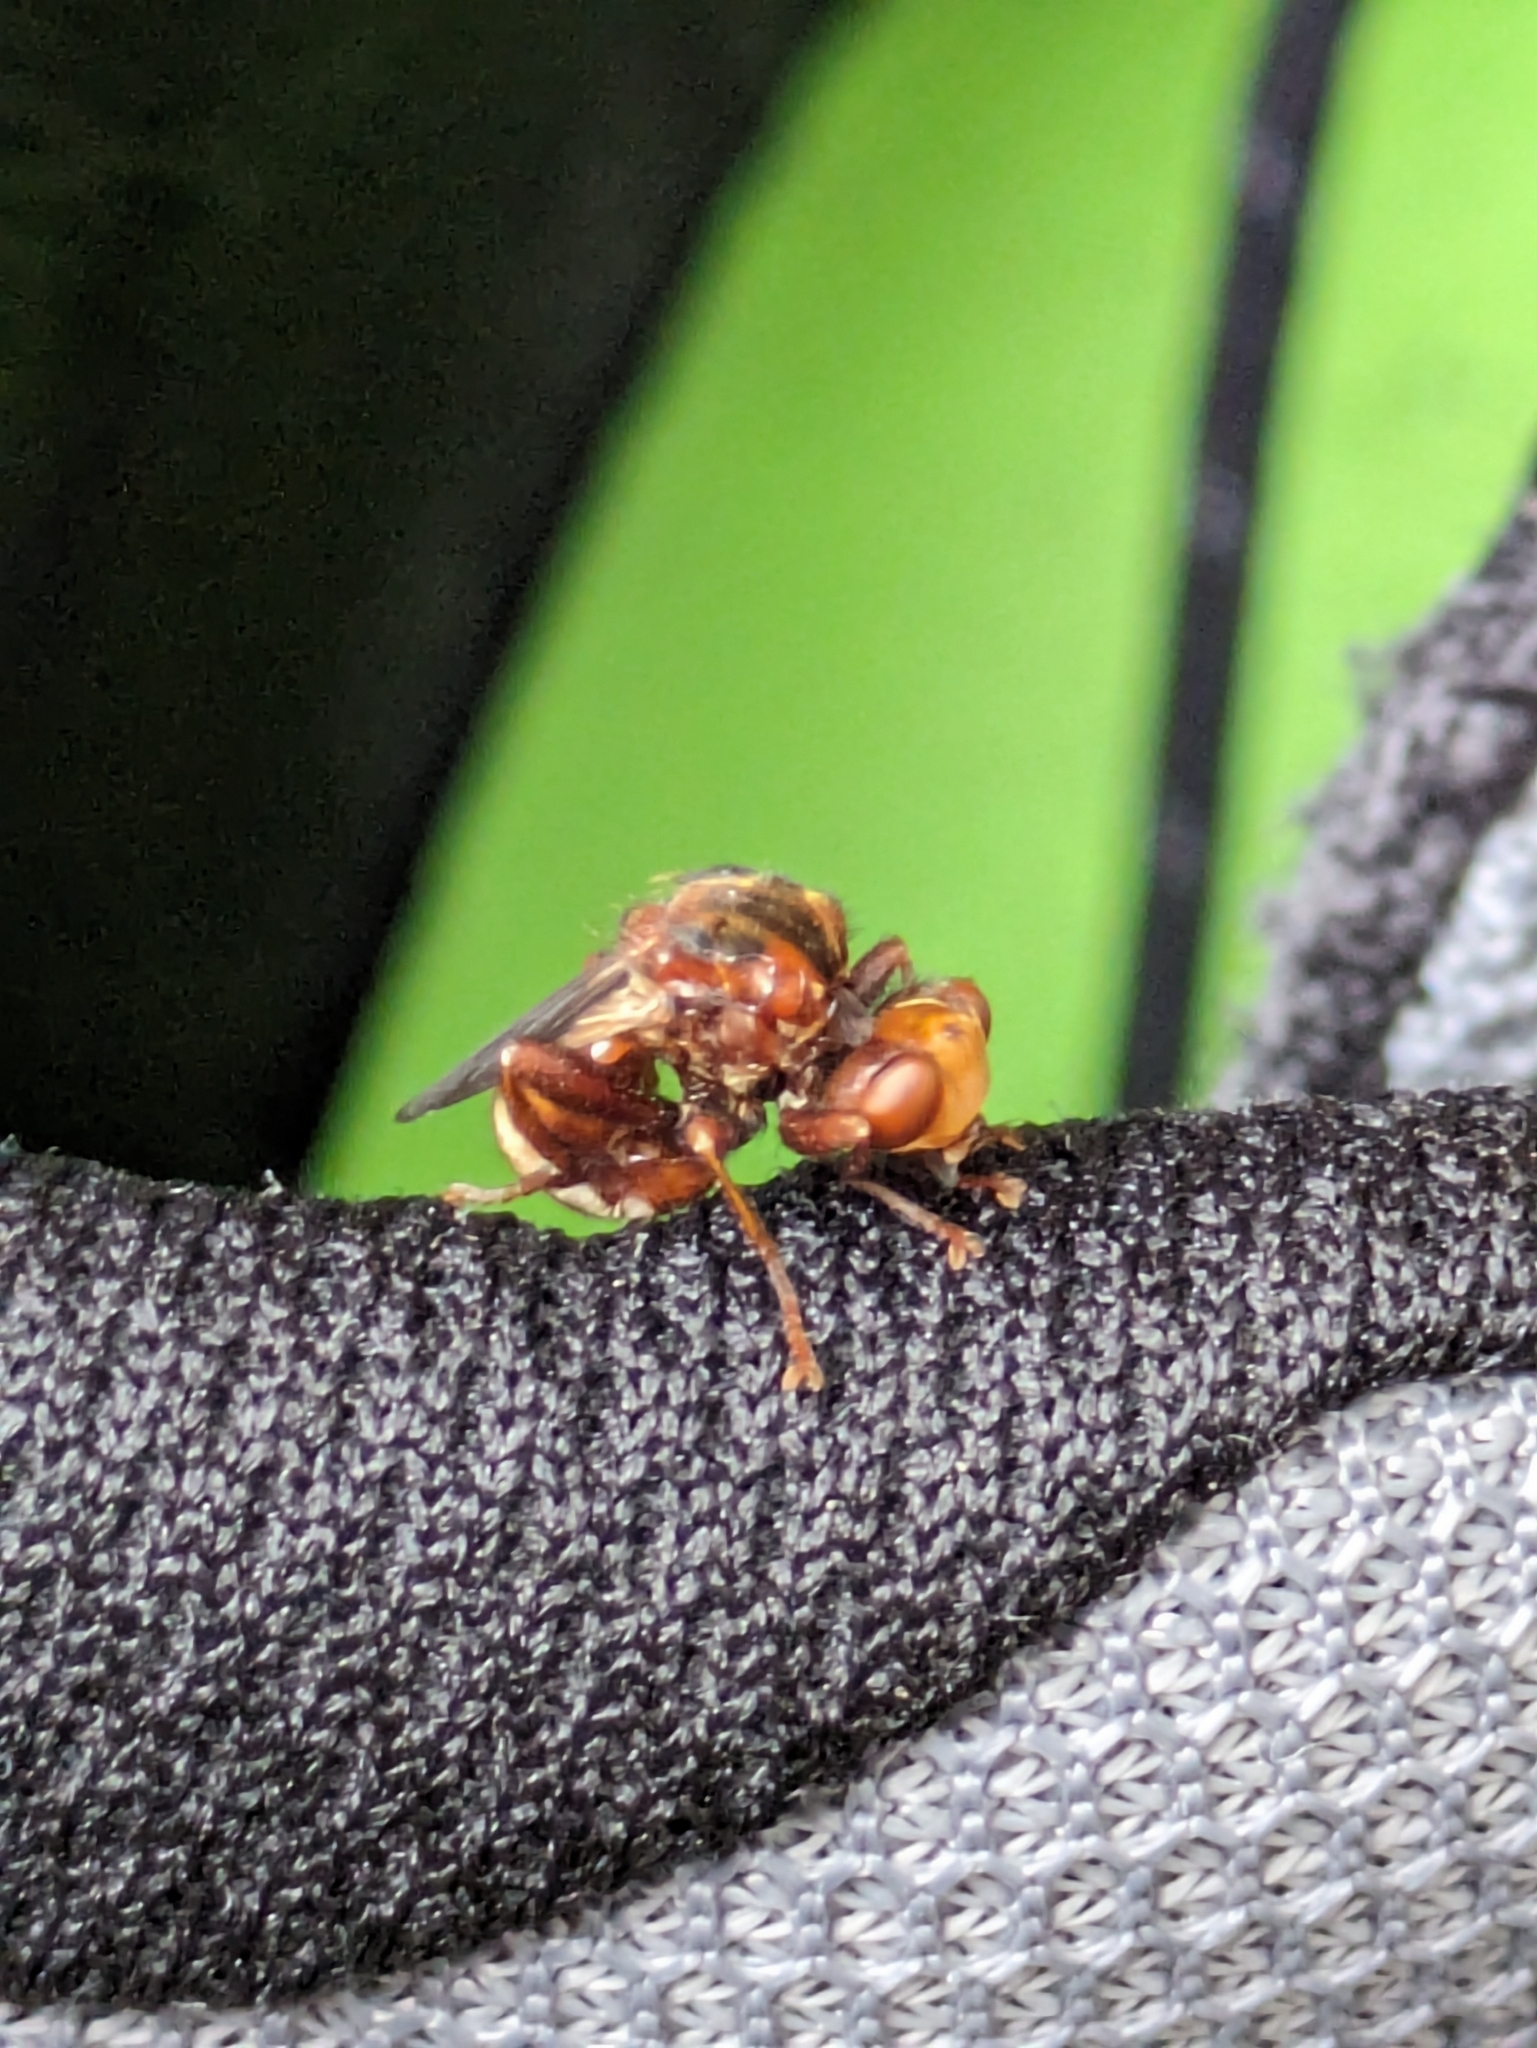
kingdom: Animalia
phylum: Arthropoda
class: Insecta
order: Diptera
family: Conopidae
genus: Sicus
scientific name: Sicus ferrugineus
